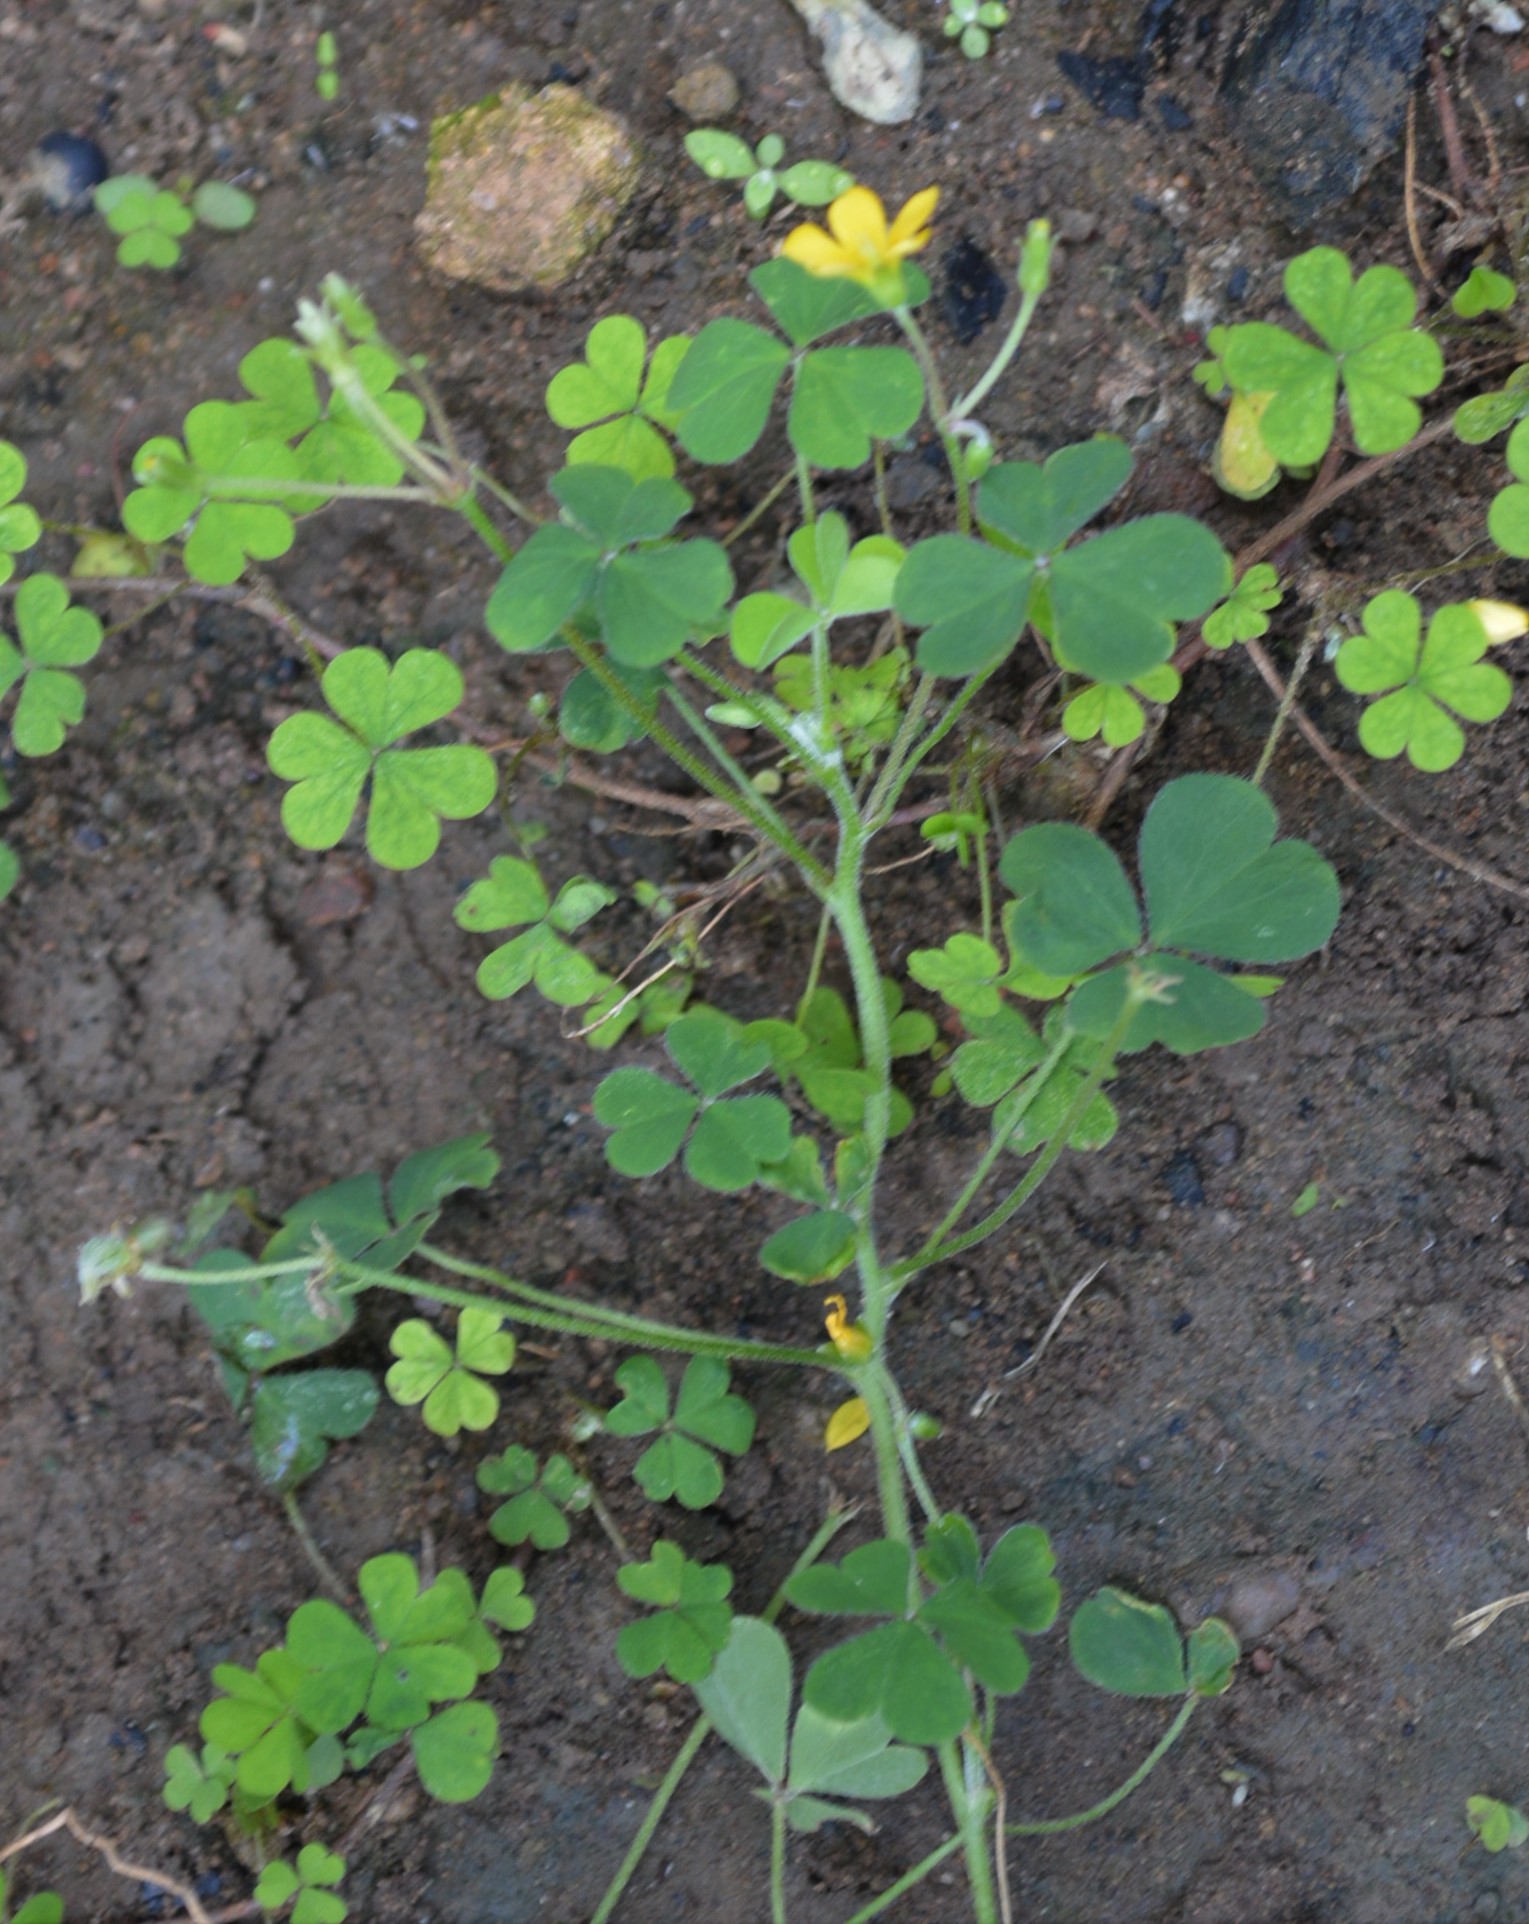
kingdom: Plantae
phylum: Tracheophyta
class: Magnoliopsida
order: Oxalidales
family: Oxalidaceae
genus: Oxalis
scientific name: Oxalis corniculata
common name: Procumbent yellow-sorrel
